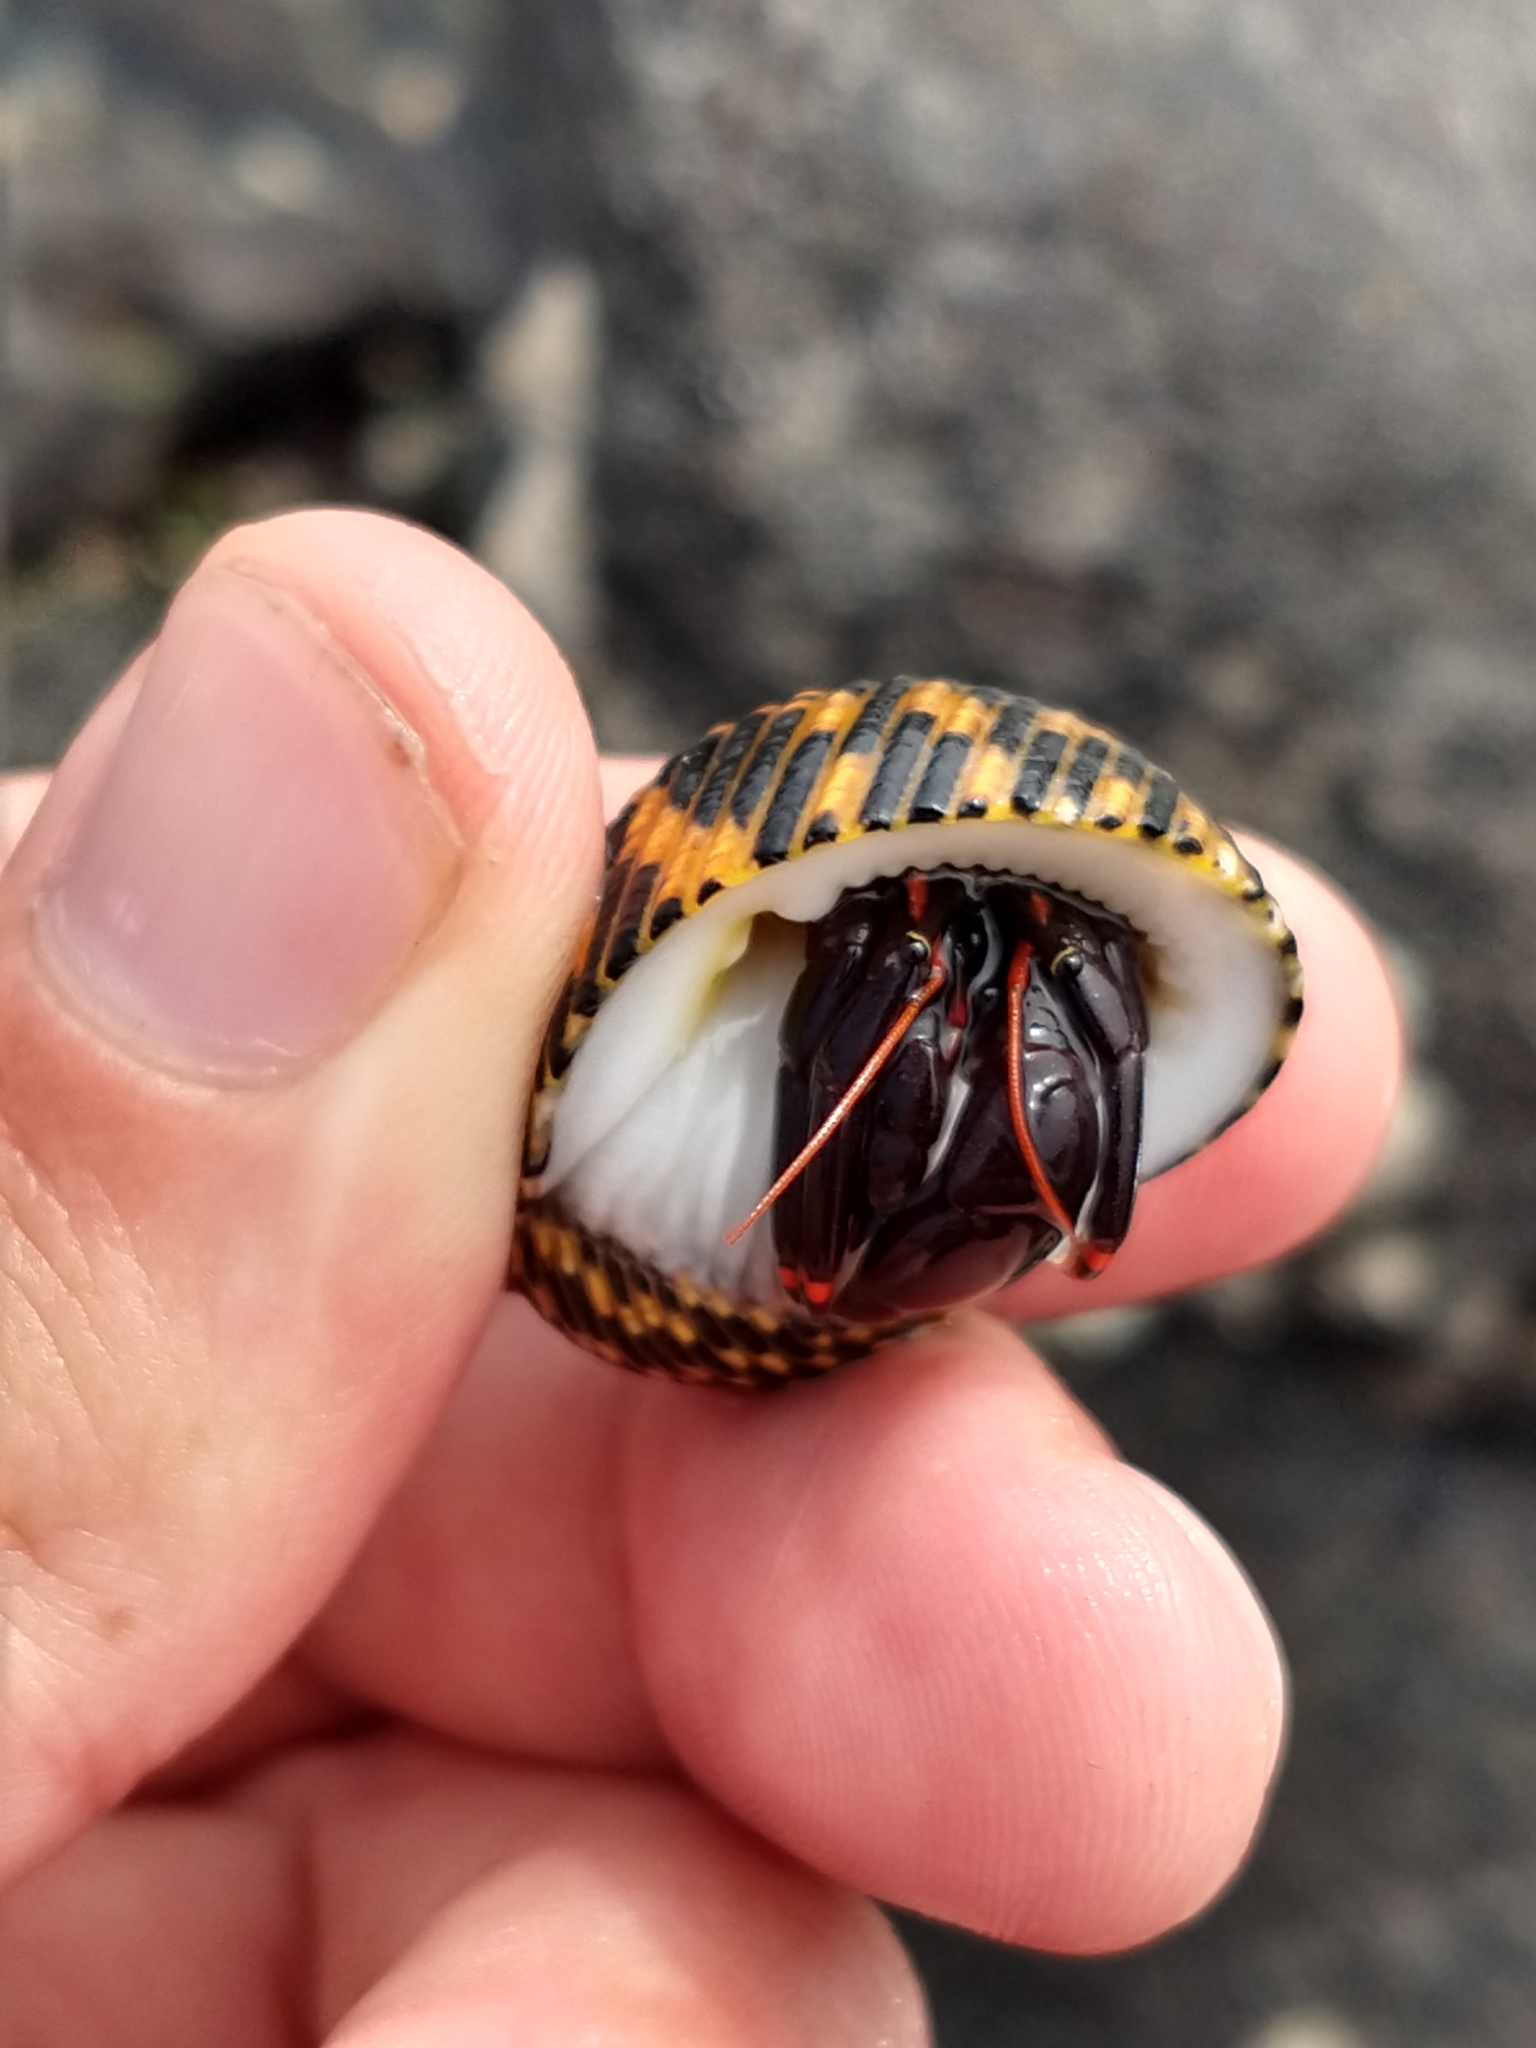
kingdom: Animalia
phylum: Arthropoda
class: Malacostraca
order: Decapoda
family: Diogenidae
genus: Calcinus
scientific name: Calcinus explorator
